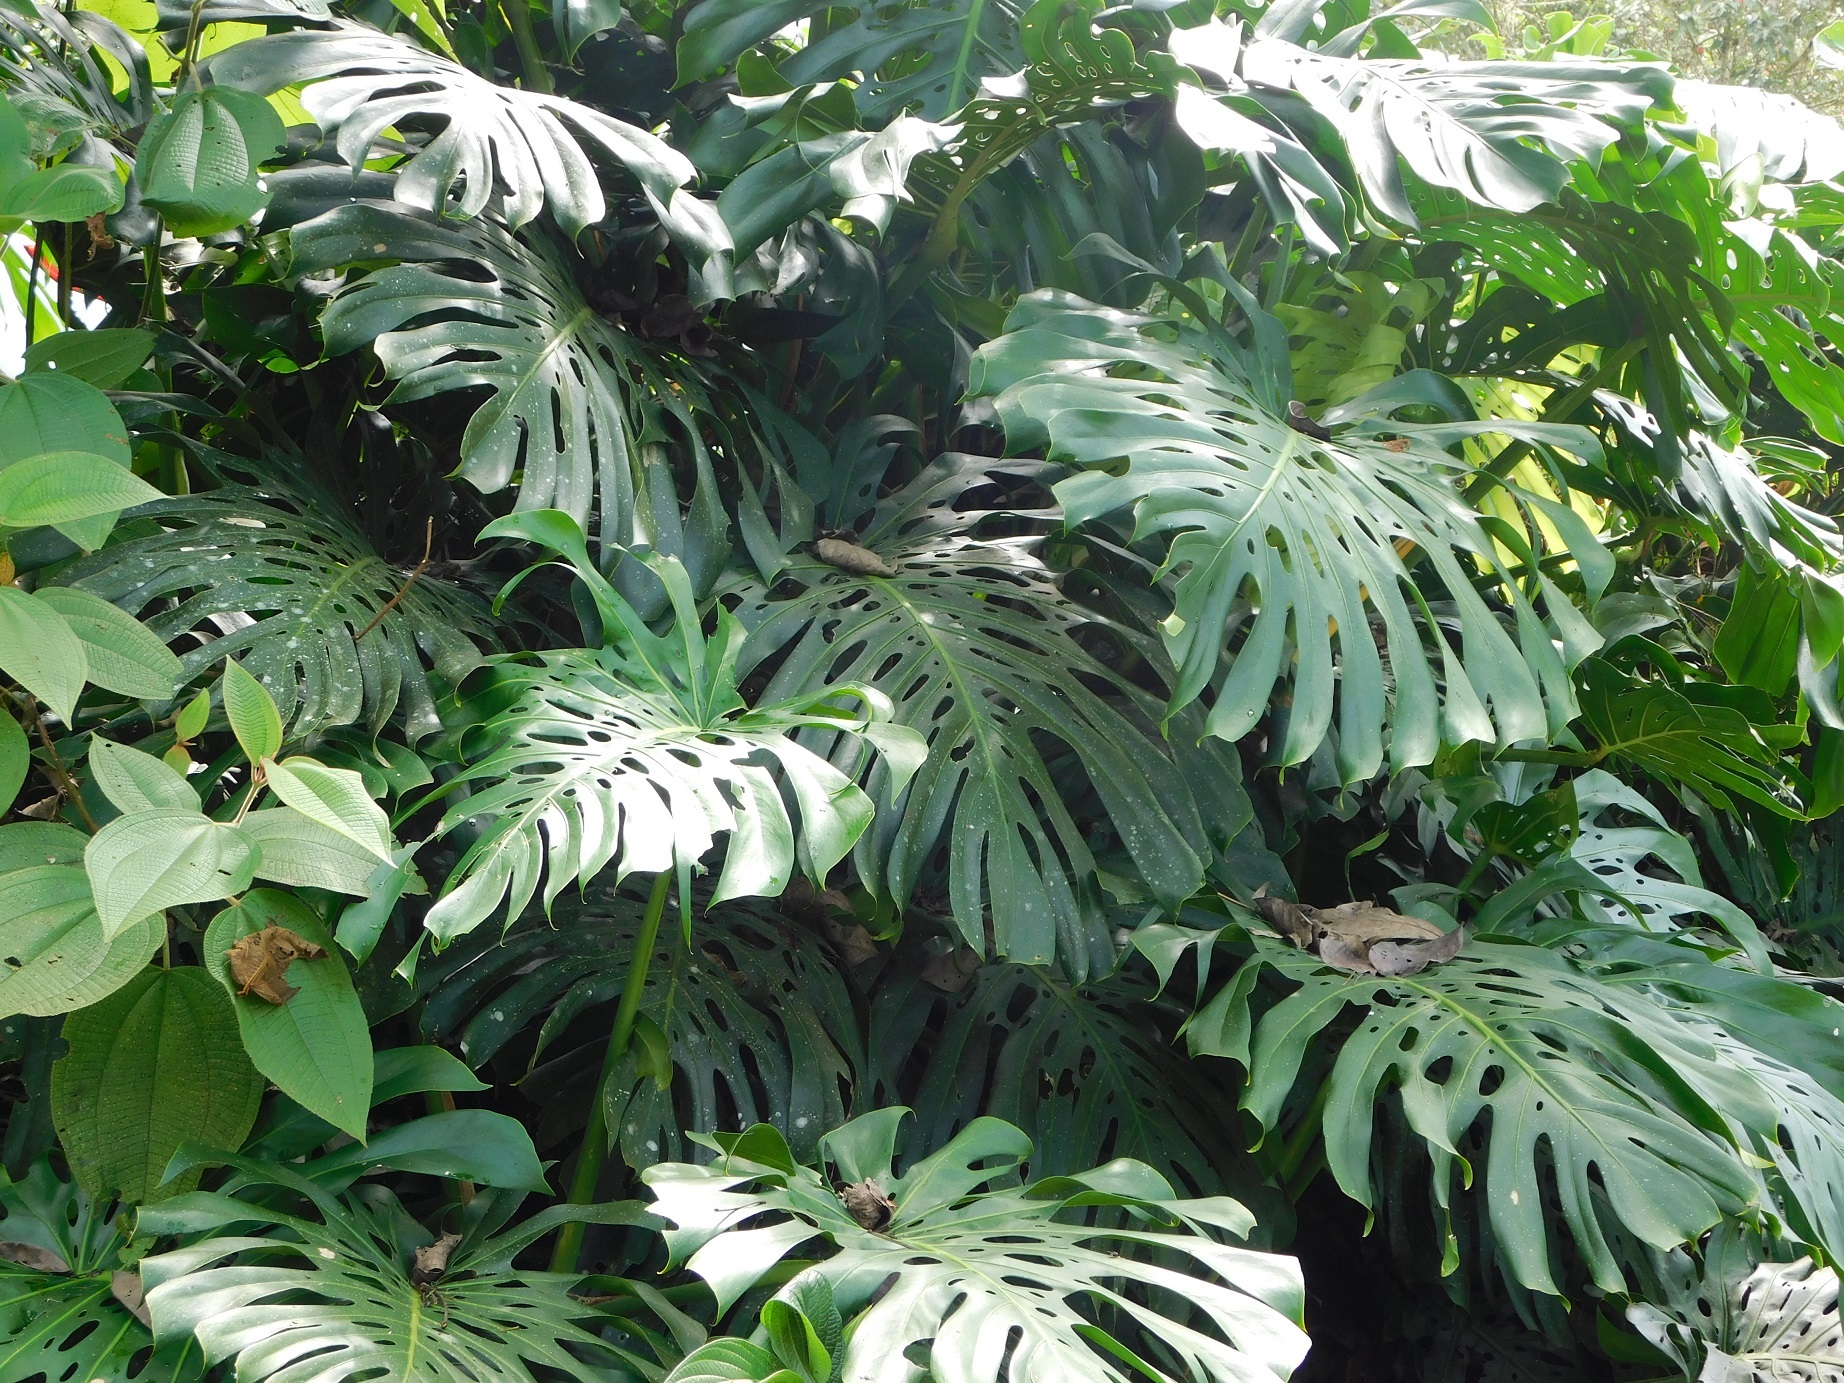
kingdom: Plantae
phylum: Tracheophyta
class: Liliopsida
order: Alismatales
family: Araceae
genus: Monstera
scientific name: Monstera deliciosa
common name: Cut-leaf-philodendron
